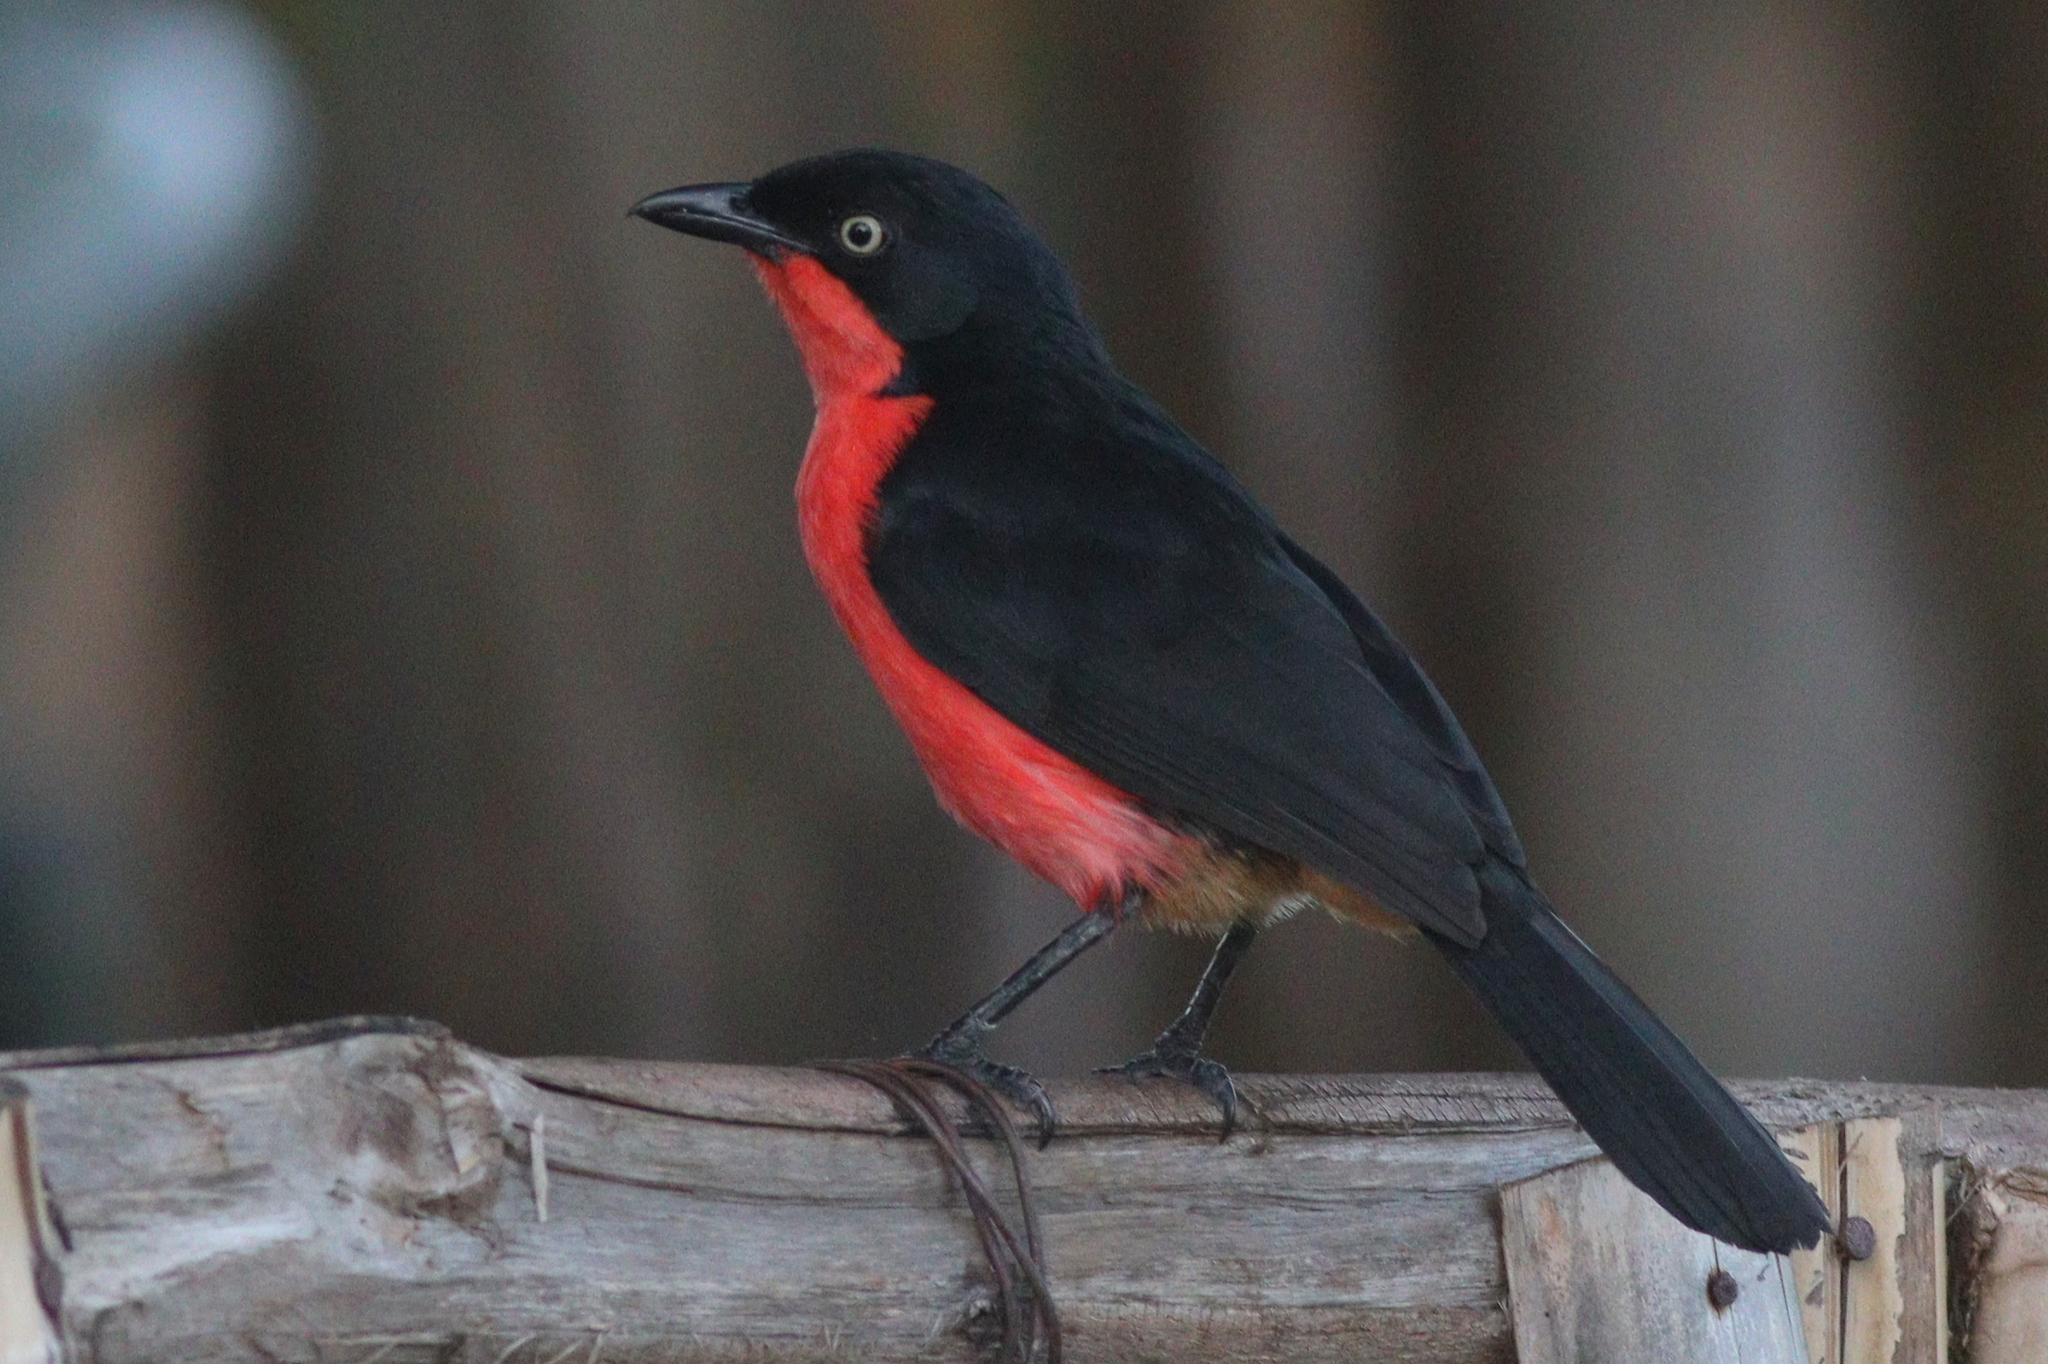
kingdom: Animalia
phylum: Chordata
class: Aves
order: Passeriformes
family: Malaconotidae
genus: Laniarius
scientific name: Laniarius erythrogaster
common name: Black-headed gonolek
